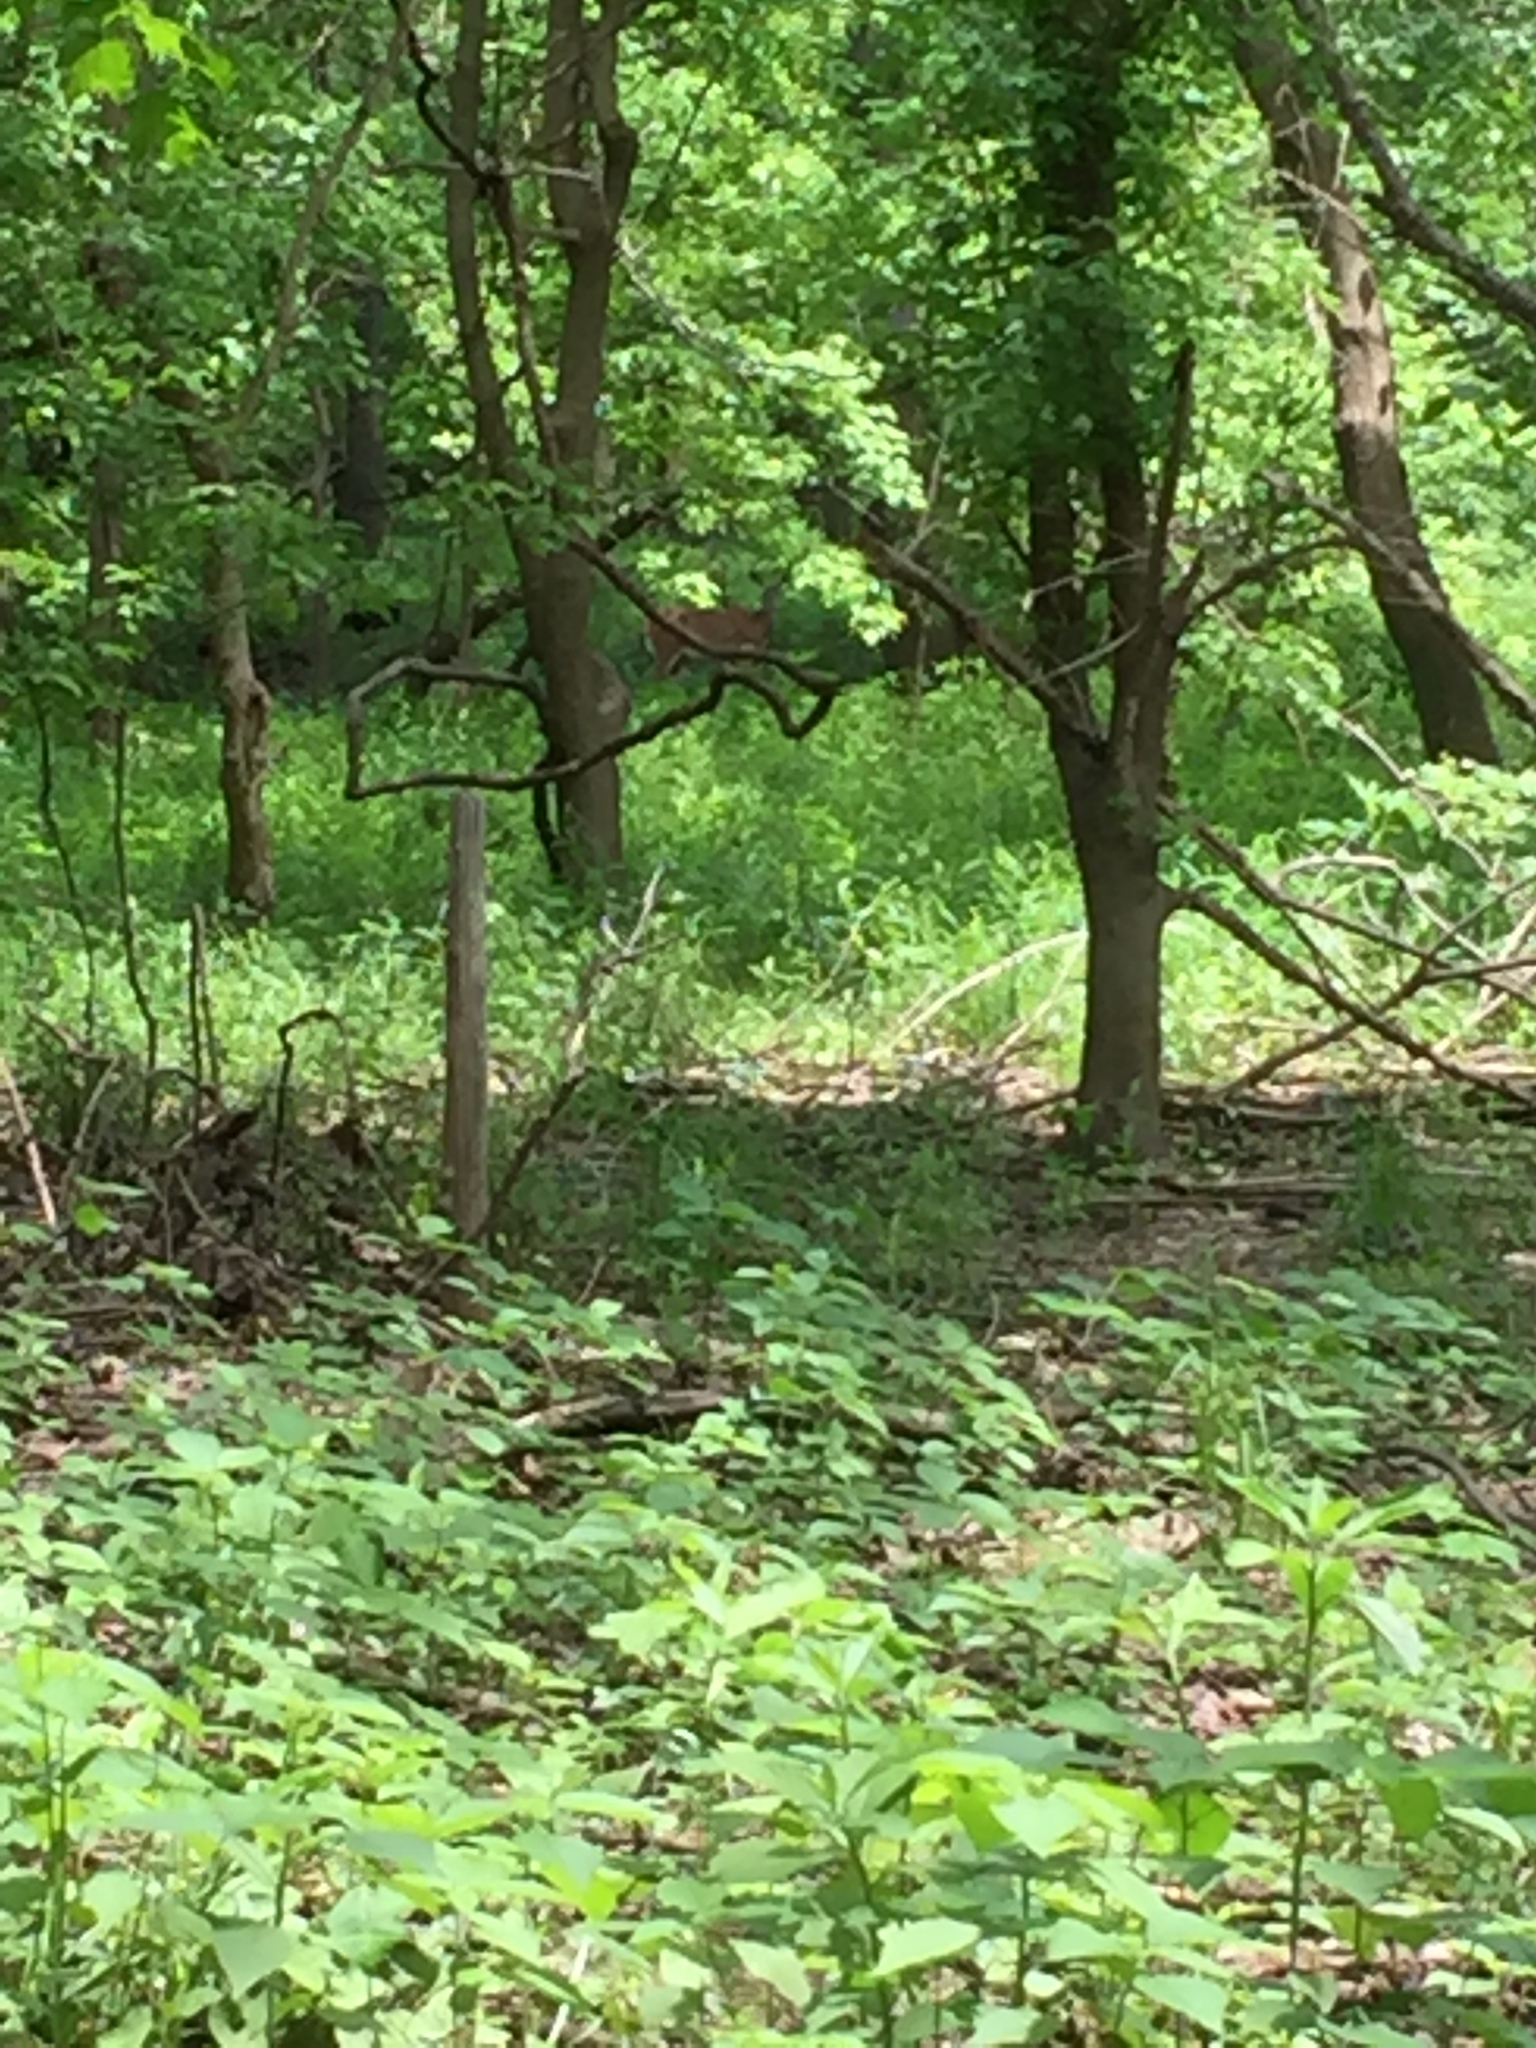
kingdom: Animalia
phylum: Chordata
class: Mammalia
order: Artiodactyla
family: Cervidae
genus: Odocoileus
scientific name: Odocoileus virginianus
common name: White-tailed deer
